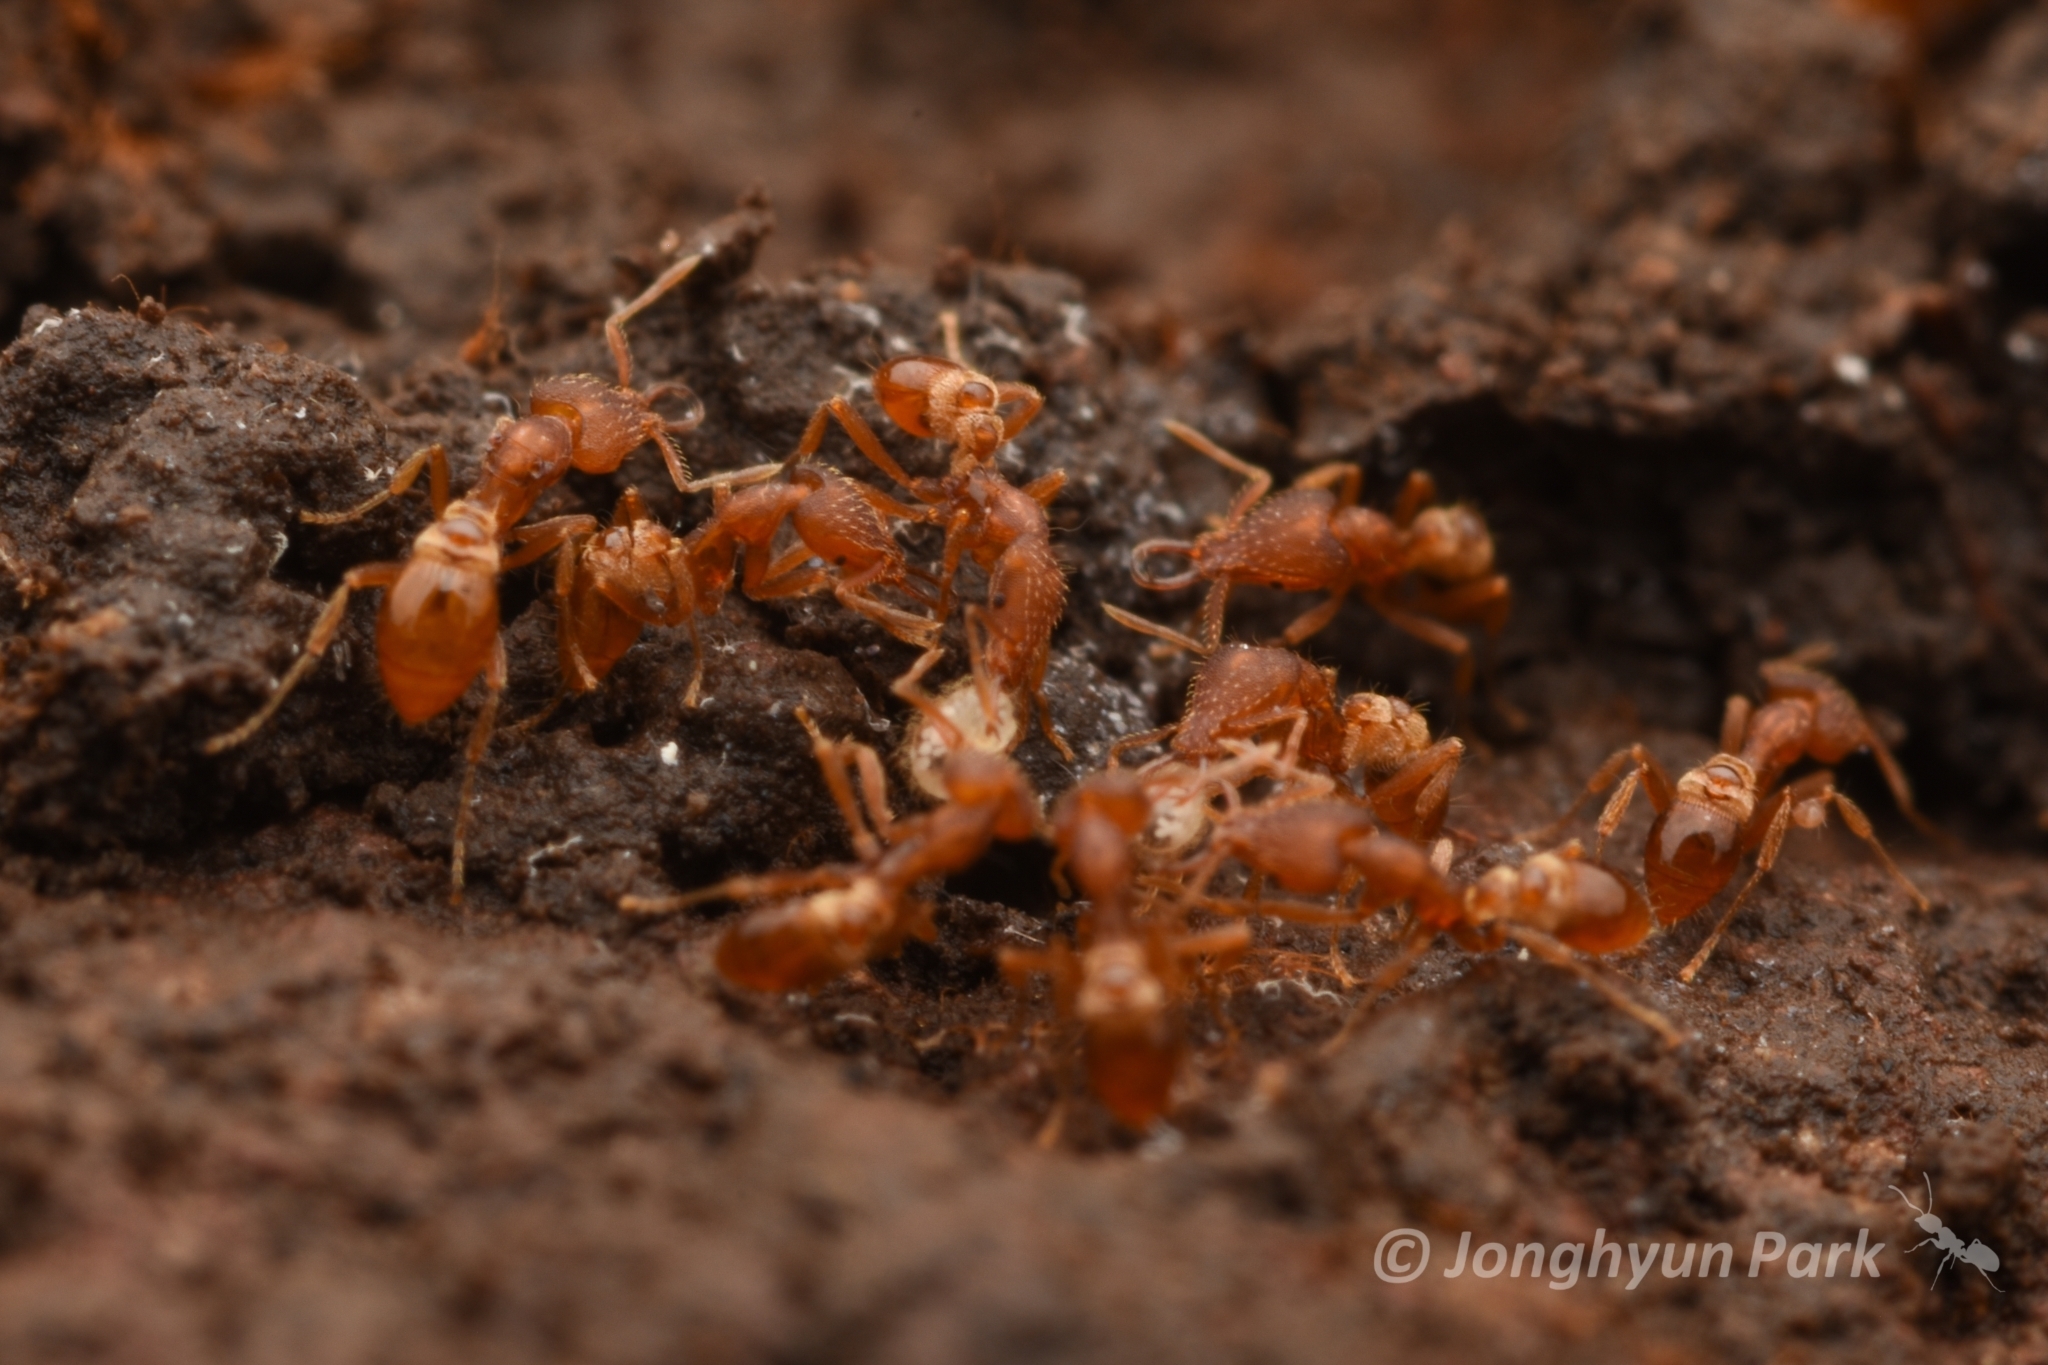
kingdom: Animalia
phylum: Arthropoda
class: Insecta
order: Hymenoptera
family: Formicidae
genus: Strumigenys
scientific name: Strumigenys lewisi
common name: Ant
